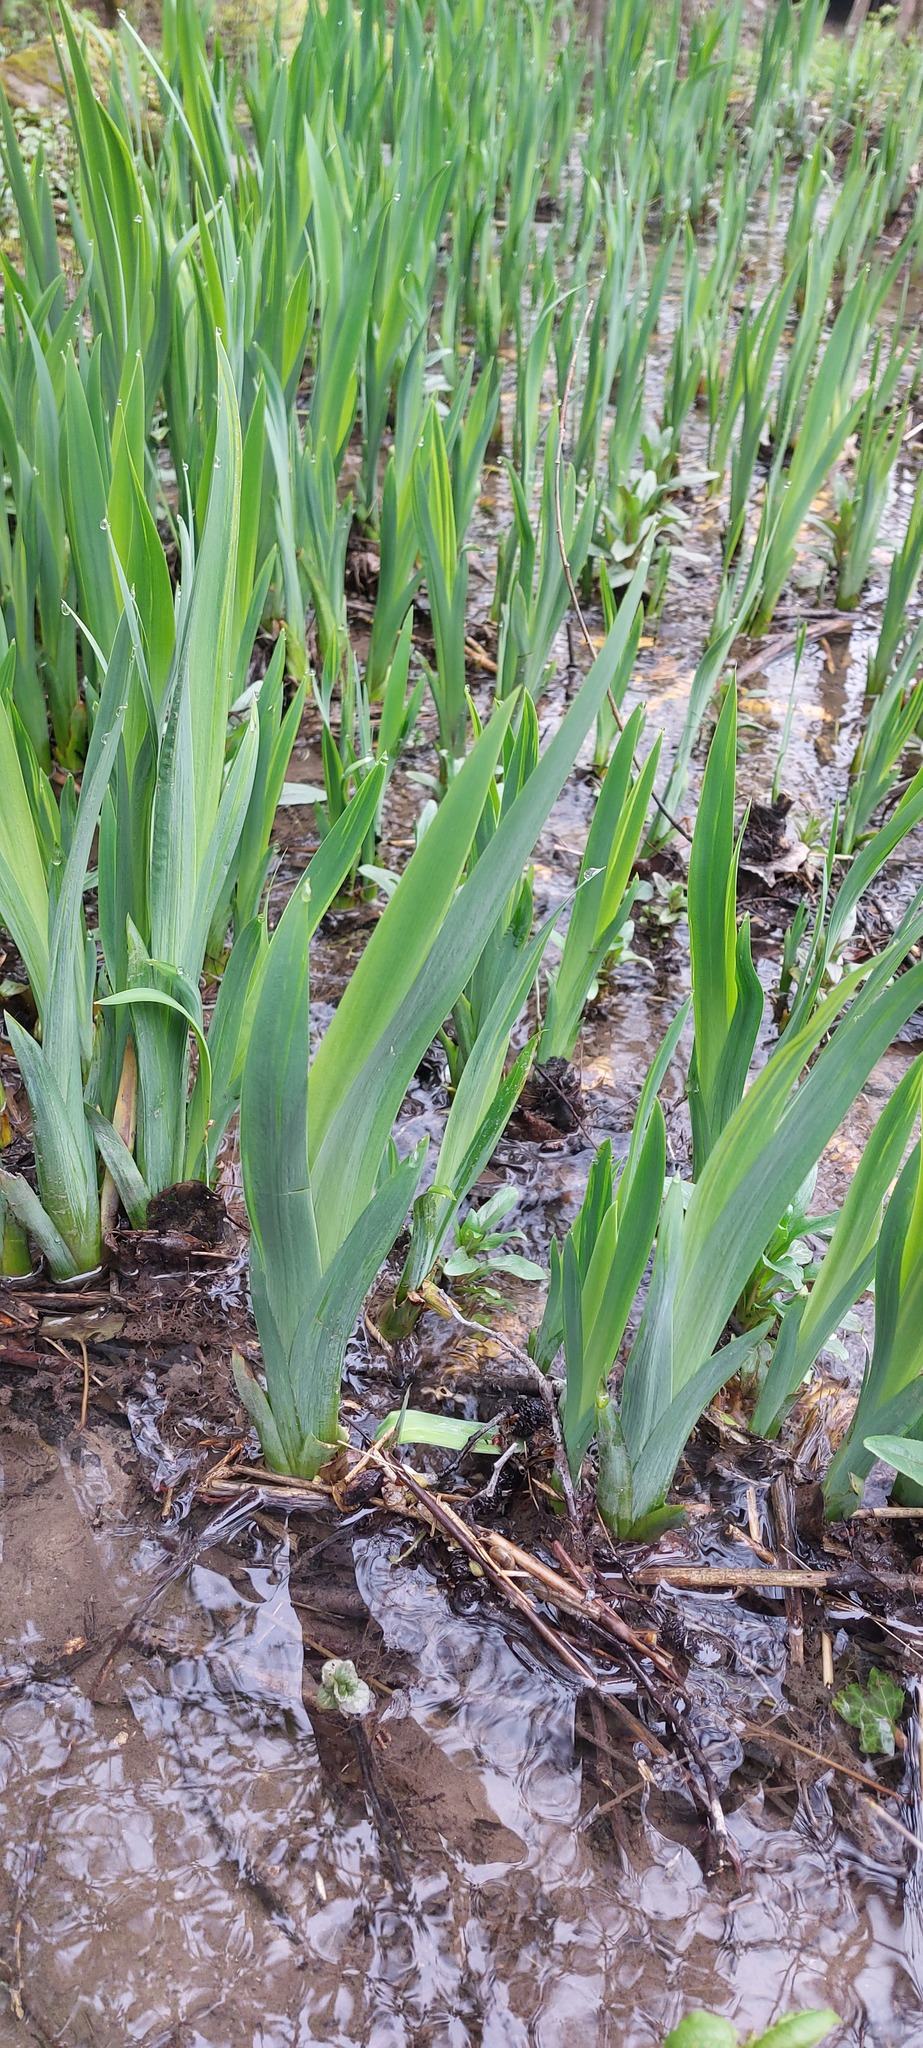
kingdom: Plantae
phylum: Tracheophyta
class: Liliopsida
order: Asparagales
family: Iridaceae
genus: Iris
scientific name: Iris pseudacorus
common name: Yellow flag
